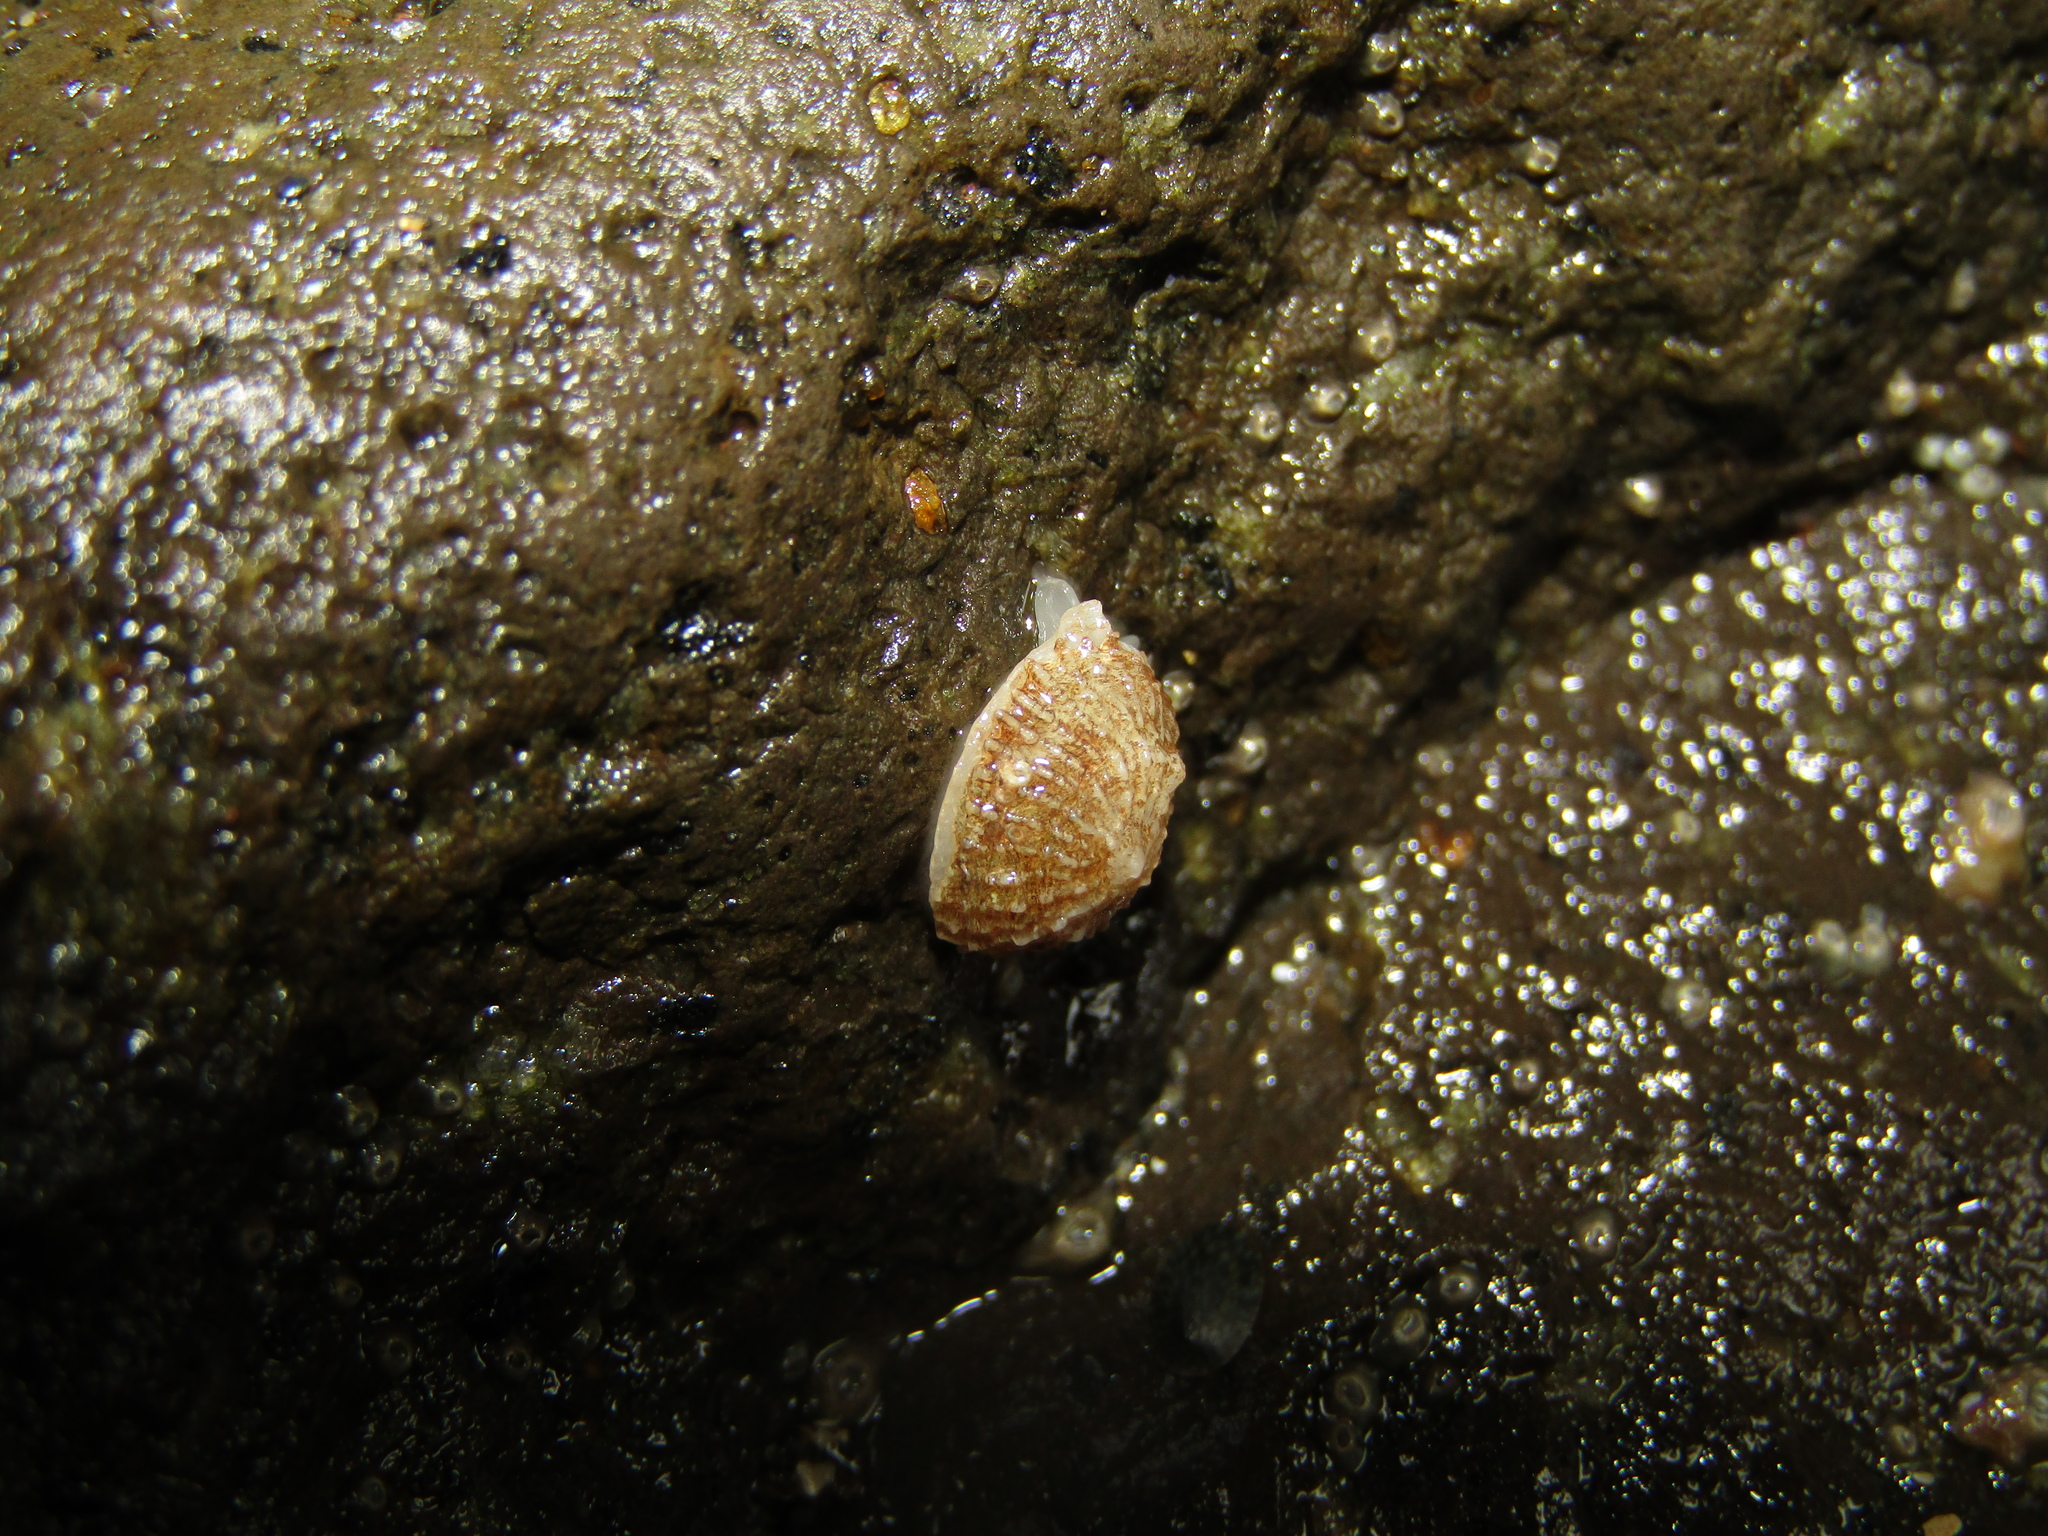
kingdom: Animalia
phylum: Mollusca
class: Gastropoda
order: Ellobiida
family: Trimusculidae
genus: Trimusculus
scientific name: Trimusculus conicus
